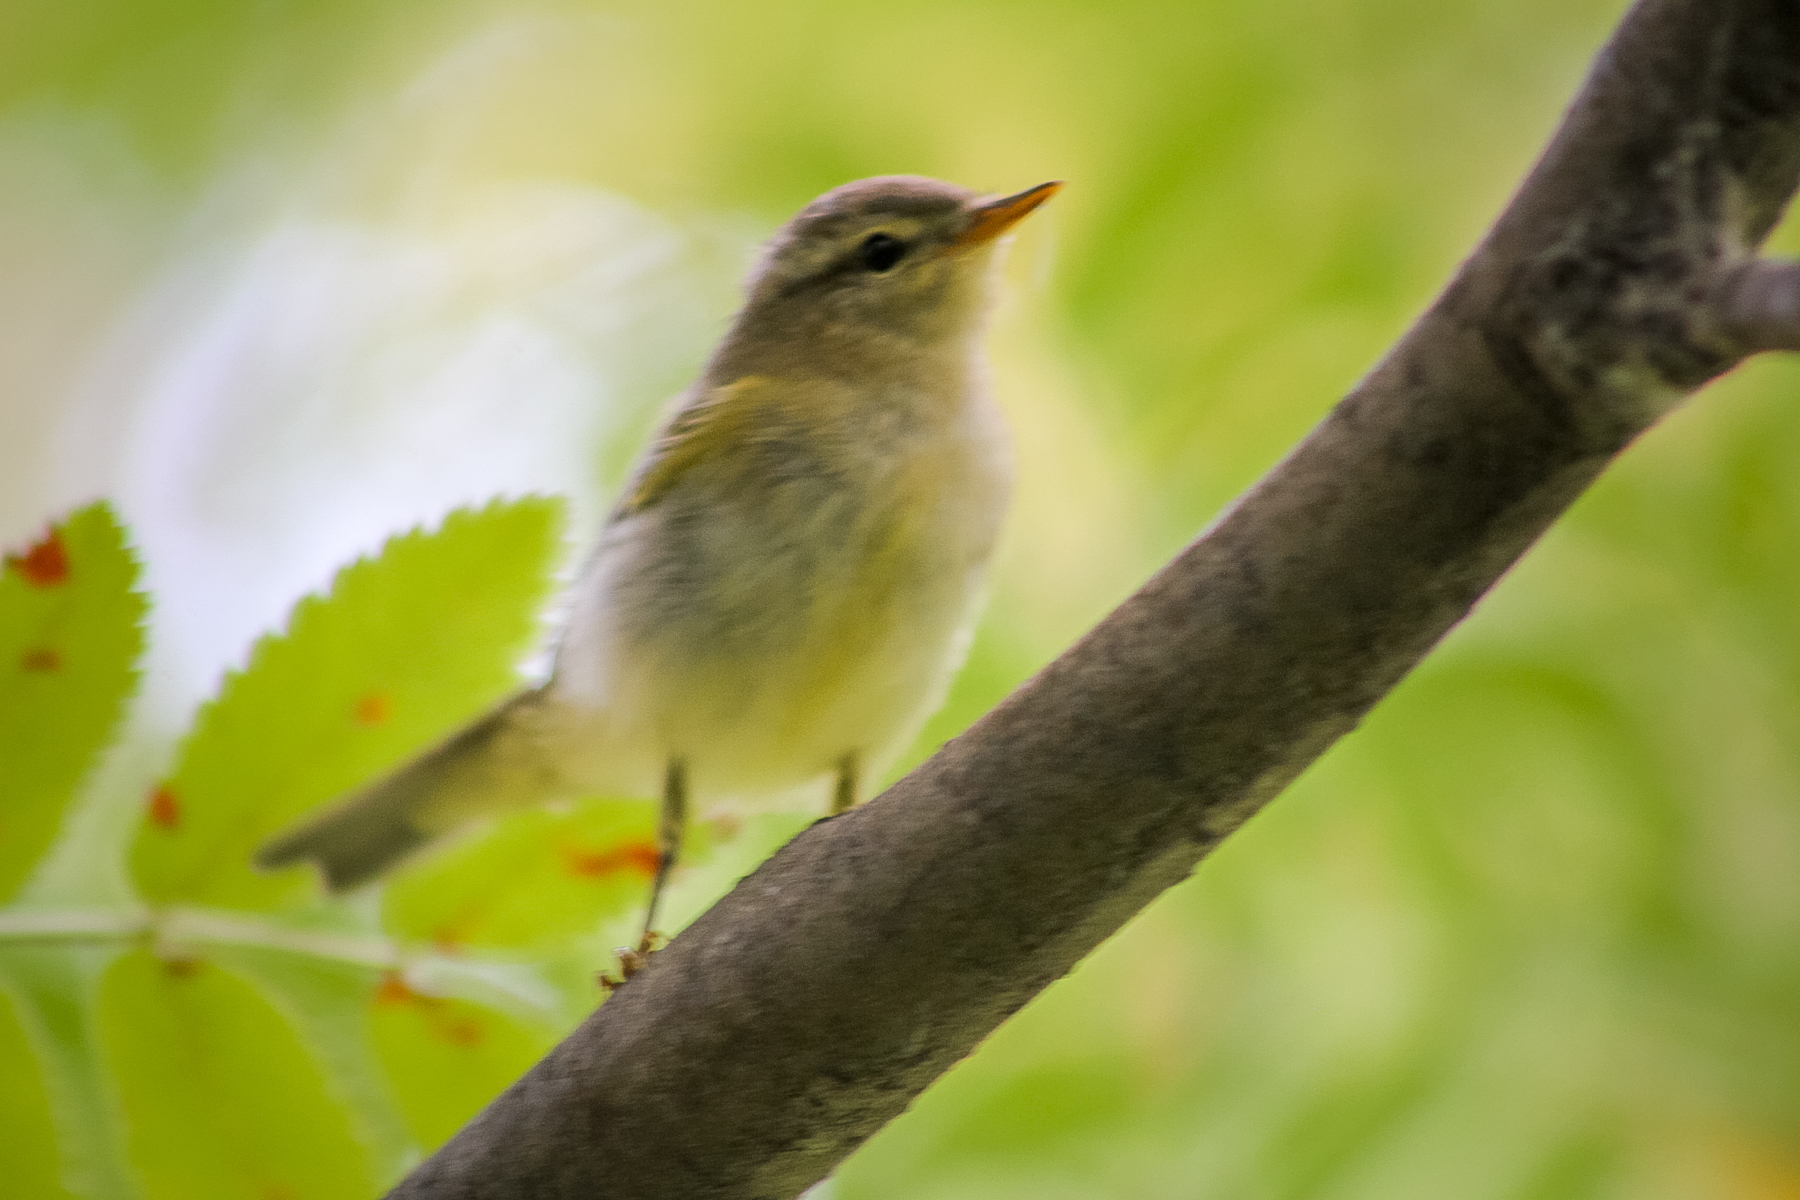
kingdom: Animalia
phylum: Chordata
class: Aves
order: Passeriformes
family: Phylloscopidae
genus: Phylloscopus
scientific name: Phylloscopus trochilus
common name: Willow warbler
